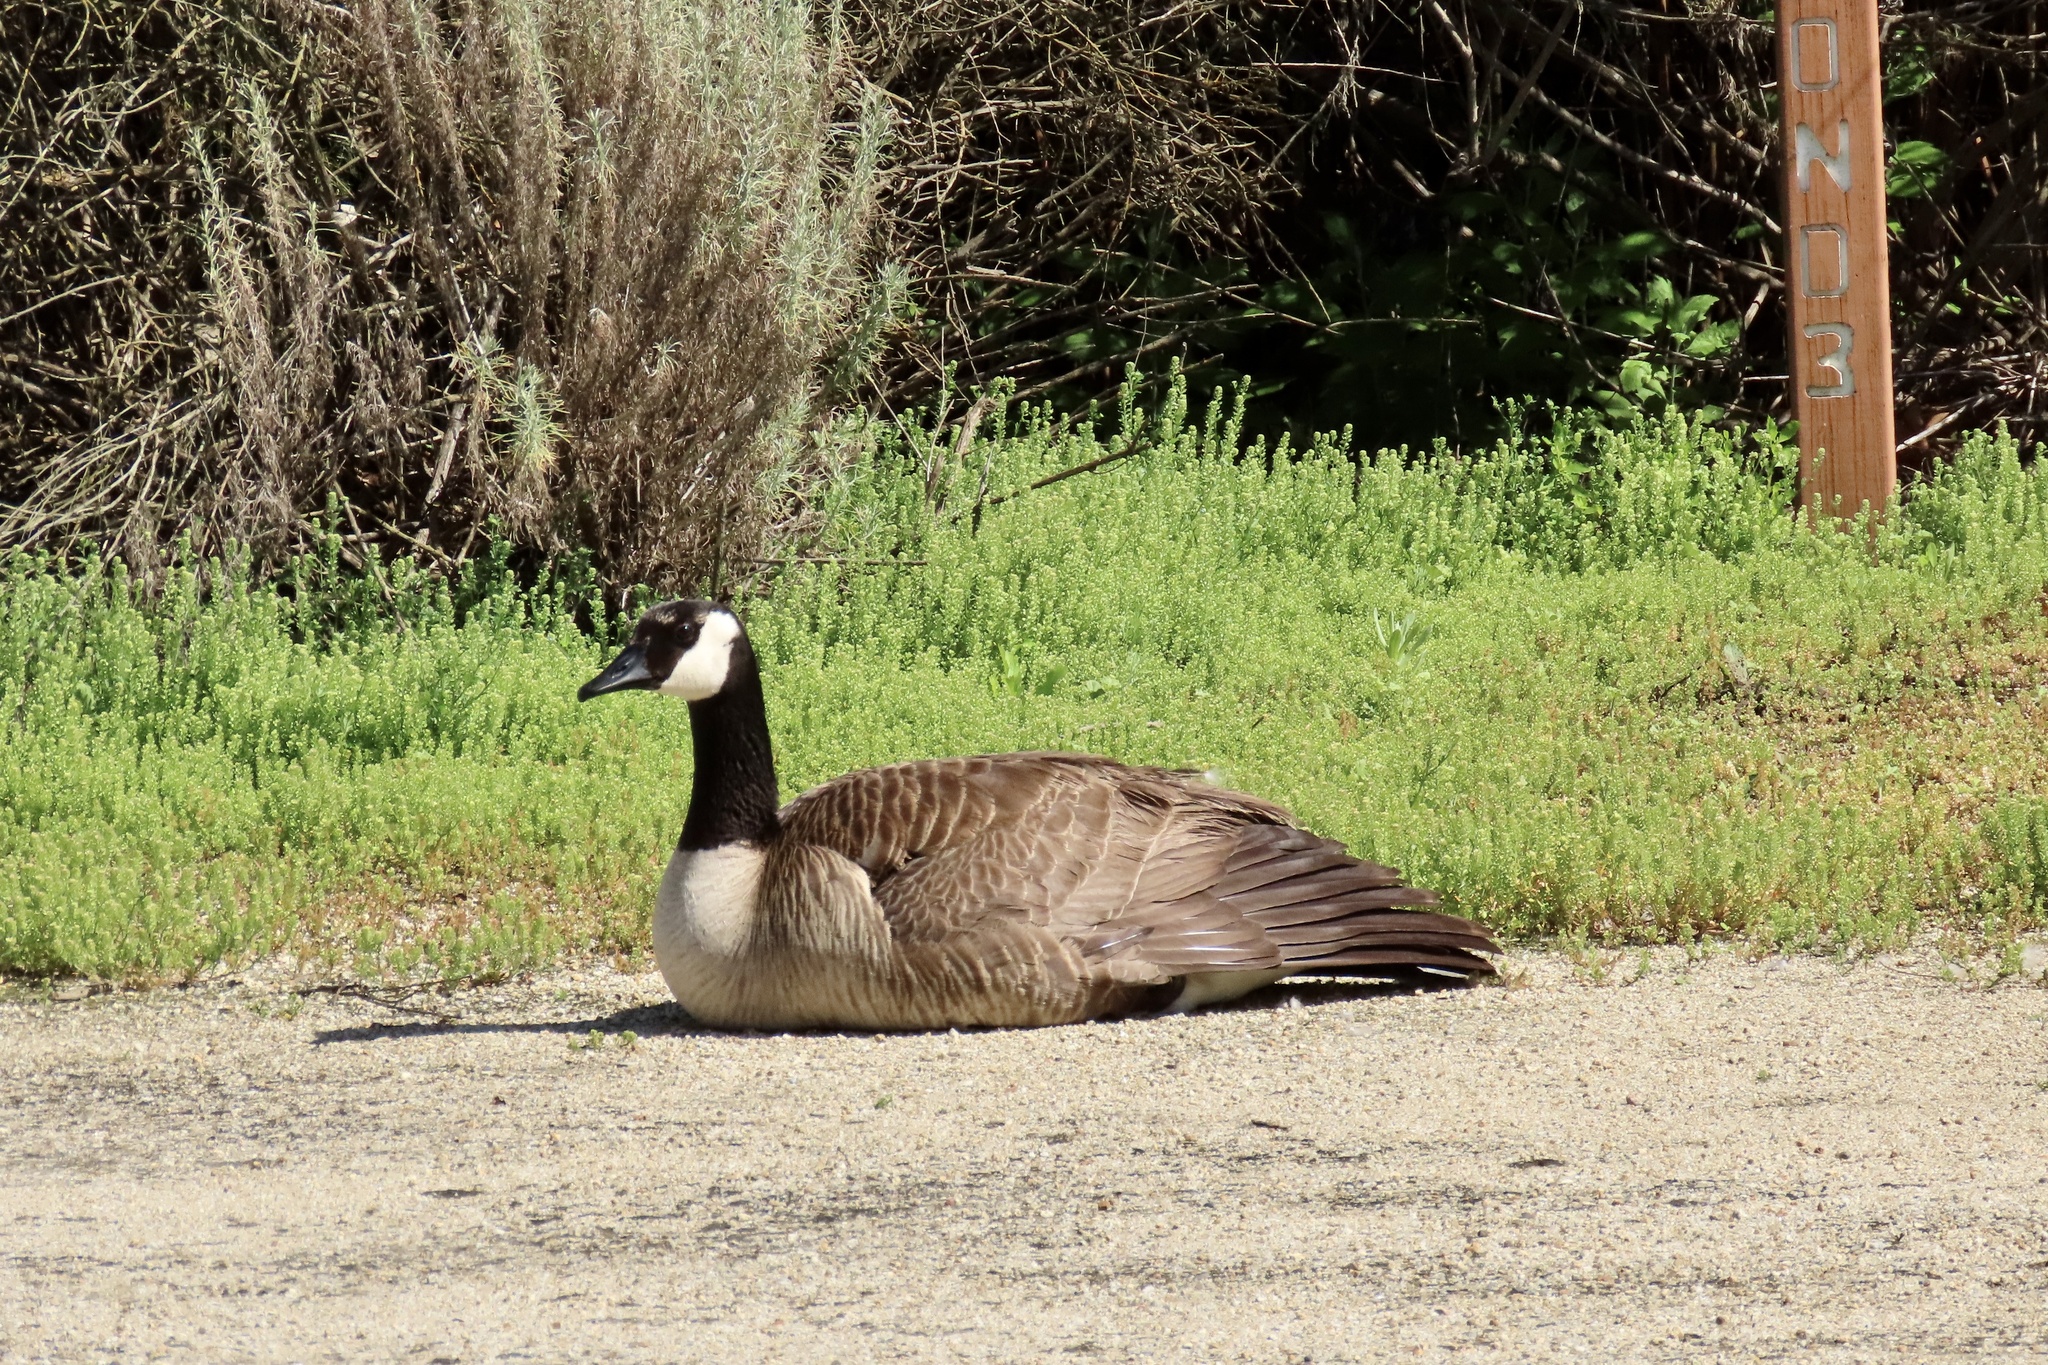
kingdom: Animalia
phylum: Chordata
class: Aves
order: Anseriformes
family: Anatidae
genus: Branta
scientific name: Branta canadensis
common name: Canada goose
